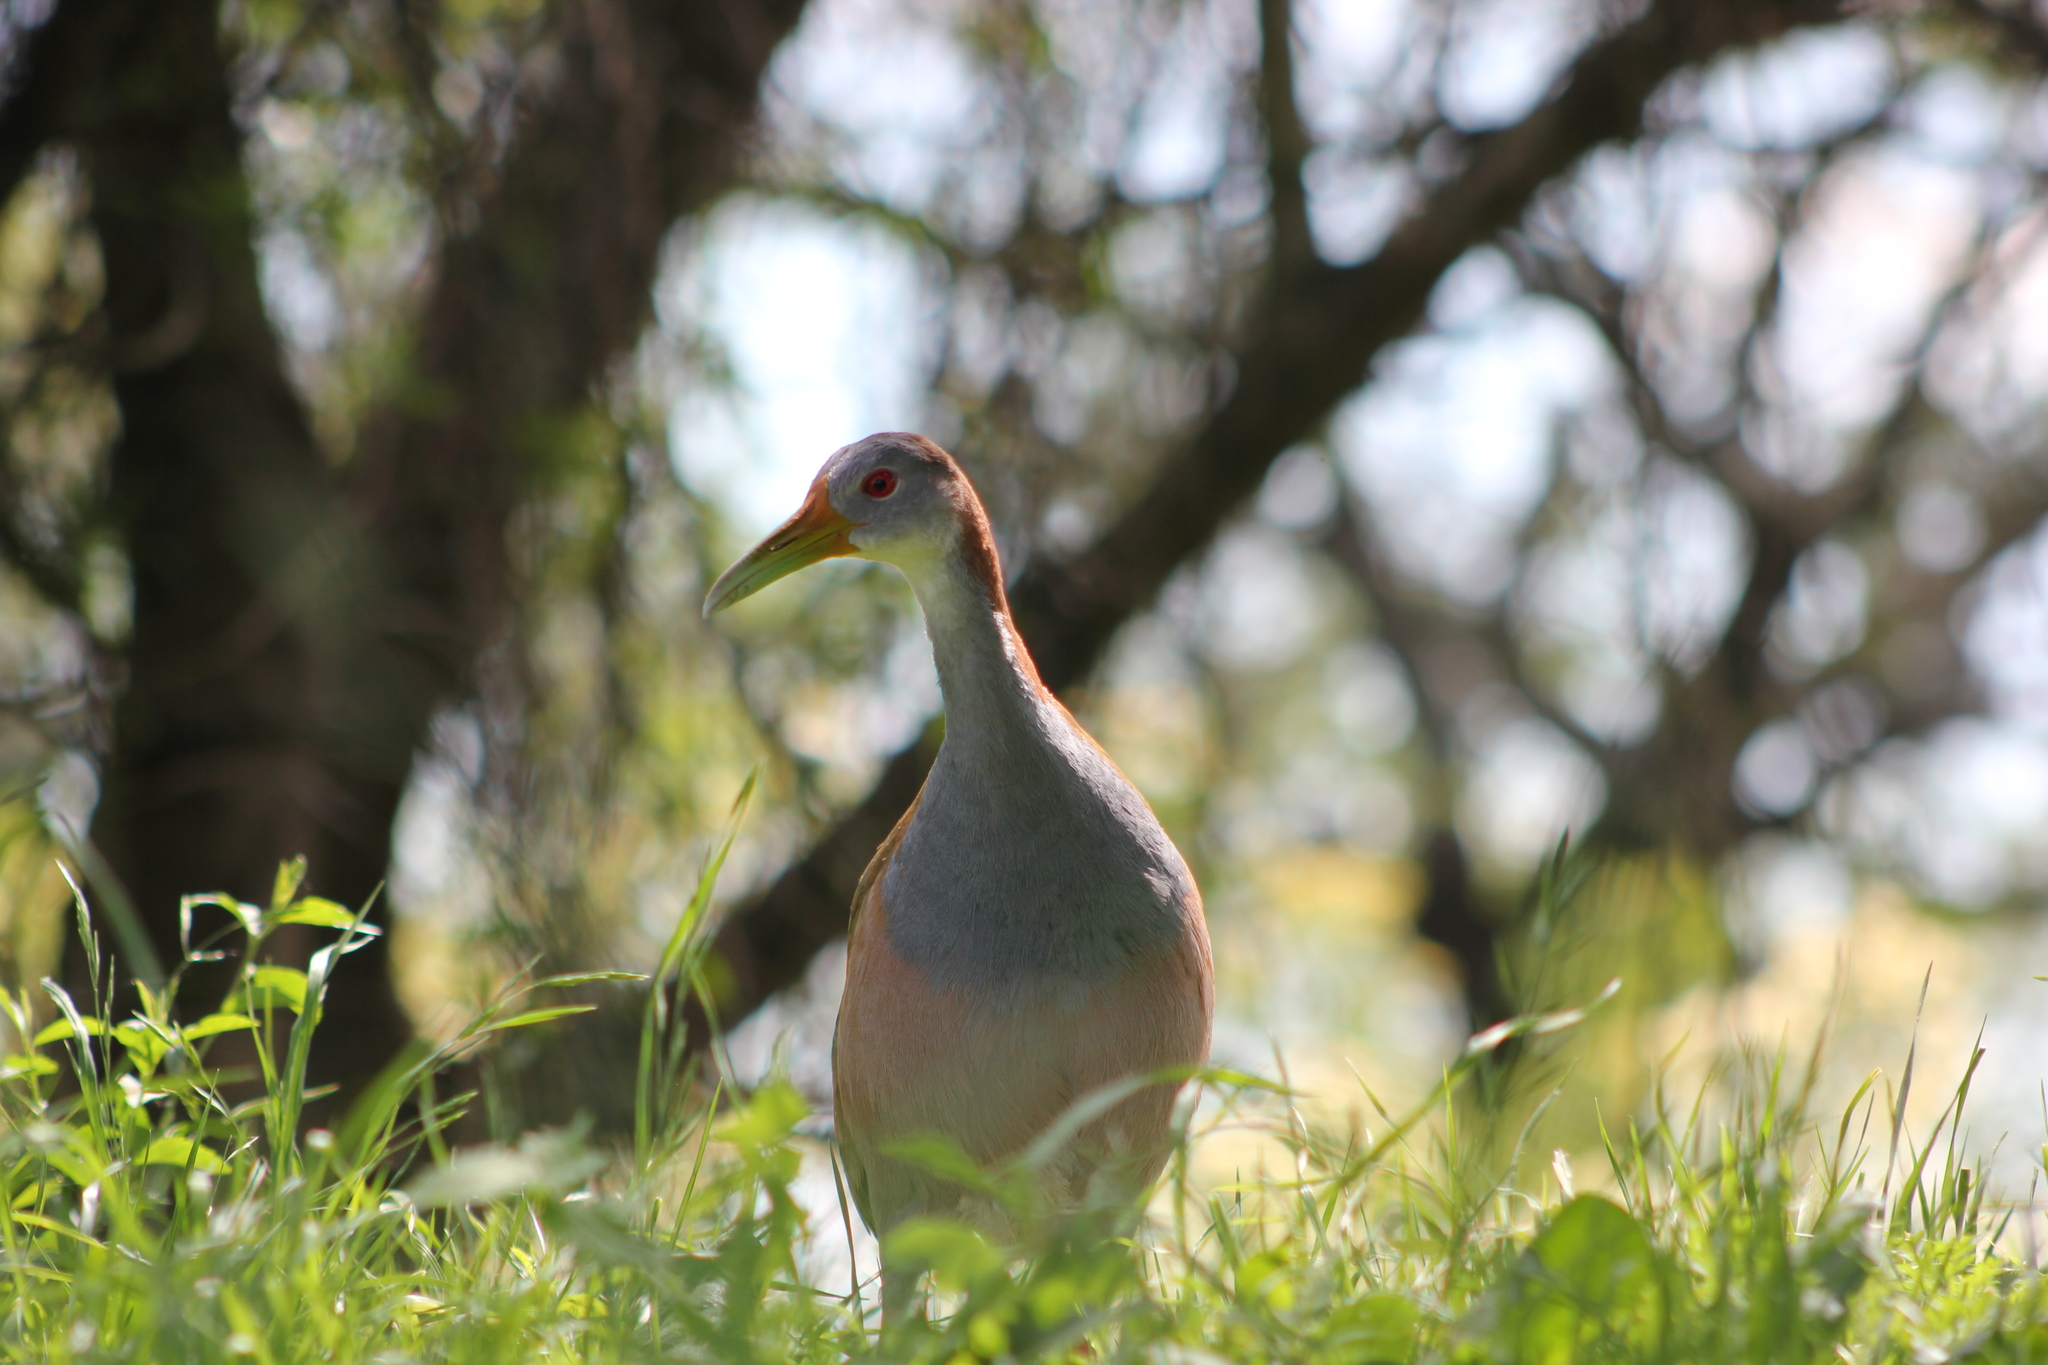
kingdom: Animalia
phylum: Chordata
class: Aves
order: Gruiformes
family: Rallidae
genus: Aramides
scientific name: Aramides ypecaha
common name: Giant wood rail
